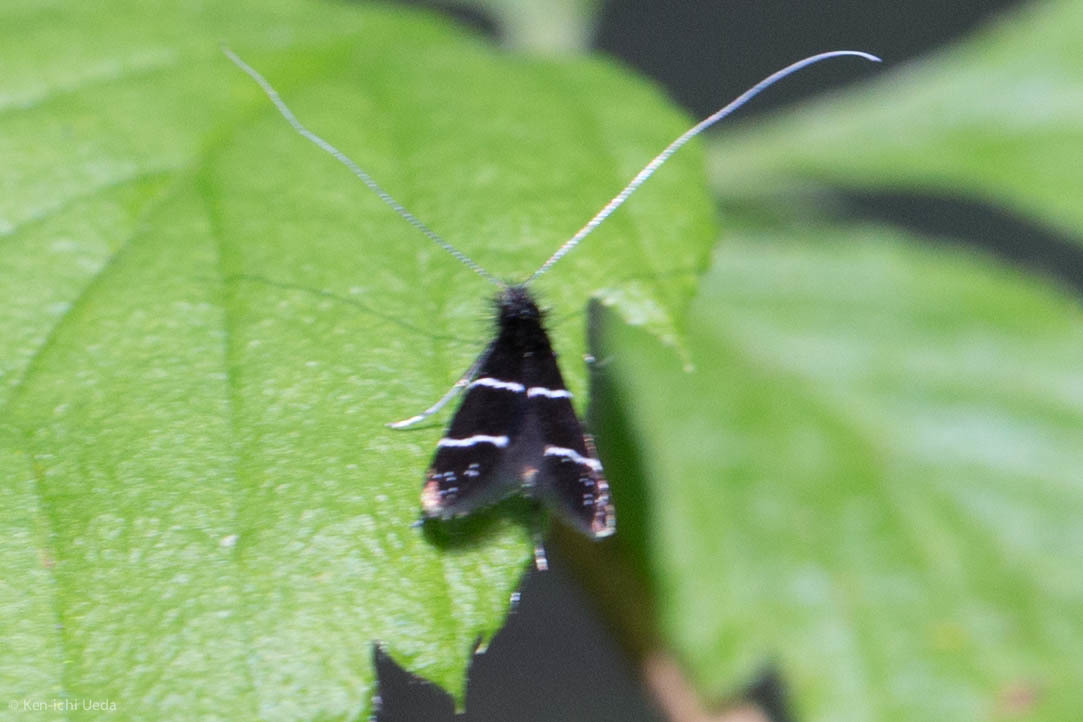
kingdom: Animalia
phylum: Arthropoda
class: Insecta
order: Lepidoptera
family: Adelidae
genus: Adela
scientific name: Adela septentrionella
